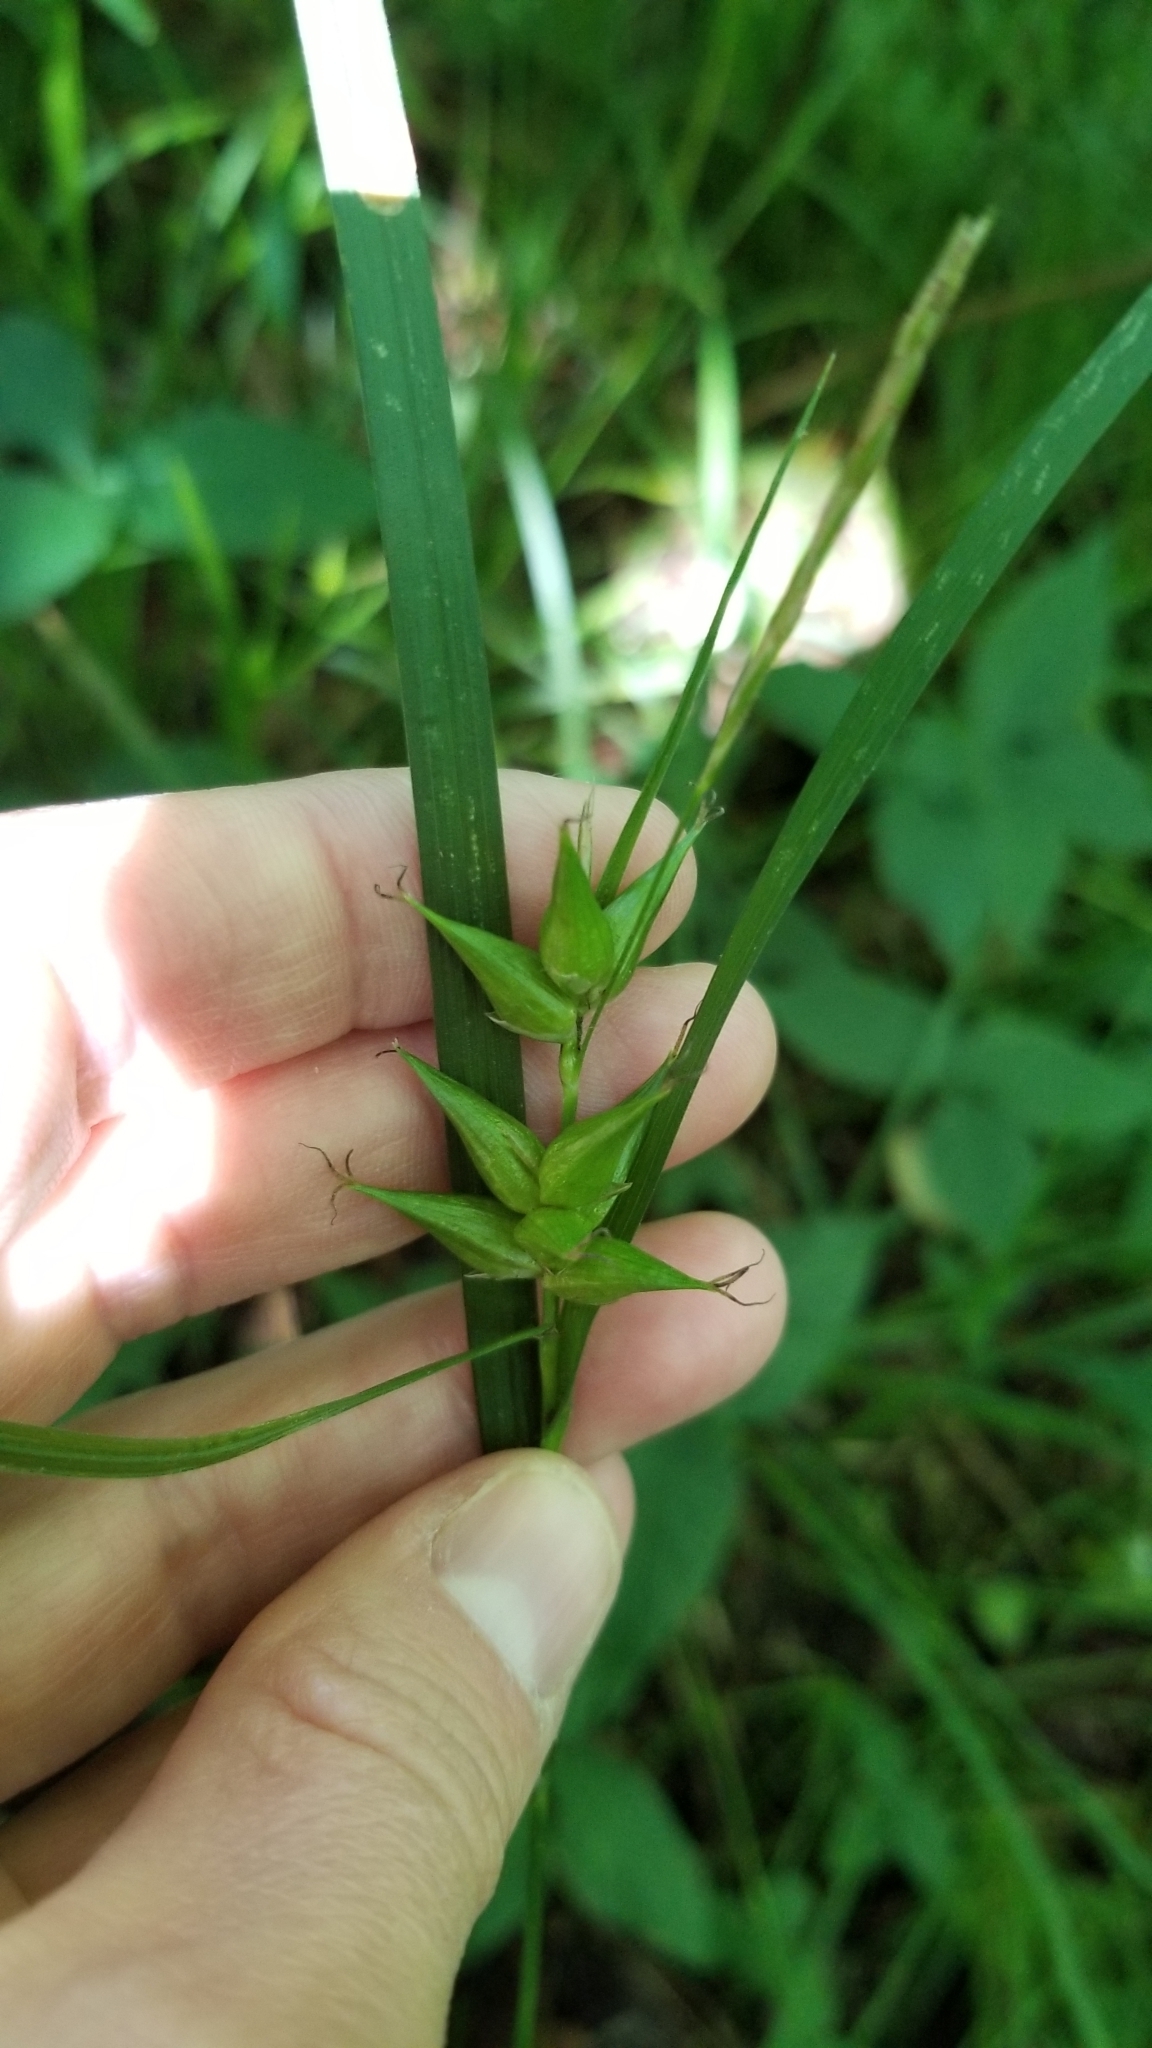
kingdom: Plantae
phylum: Tracheophyta
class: Liliopsida
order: Poales
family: Cyperaceae
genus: Carex
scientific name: Carex intumescens
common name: Greater bladder sedge
